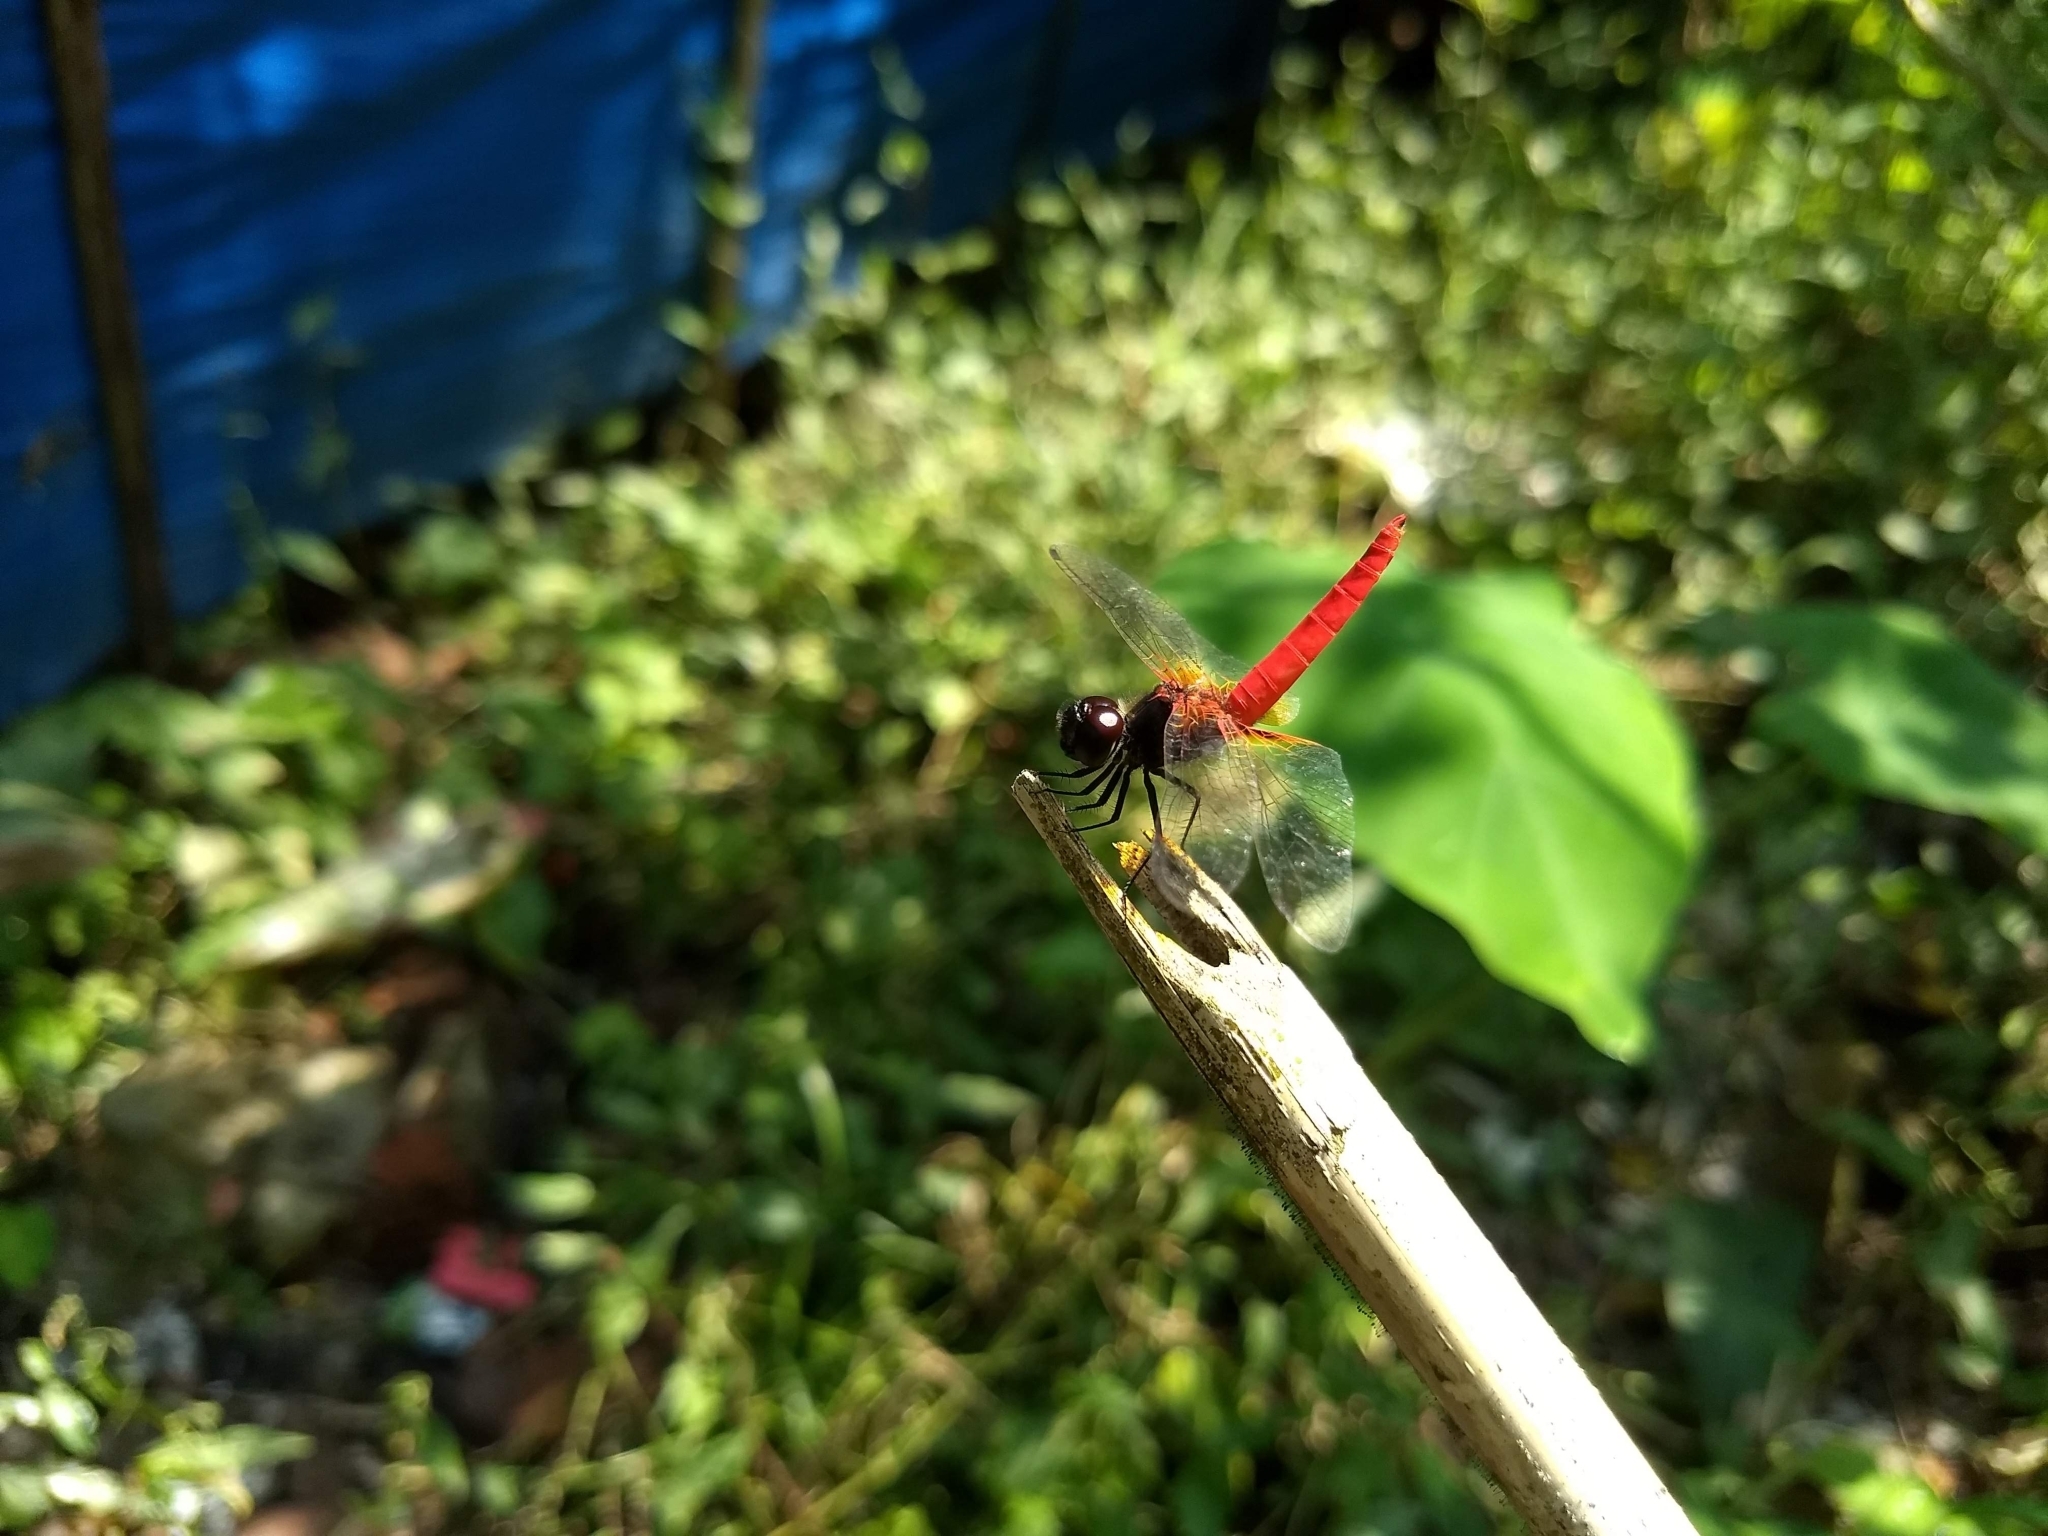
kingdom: Animalia
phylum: Arthropoda
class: Insecta
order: Odonata
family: Libellulidae
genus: Aethriamanta
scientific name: Aethriamanta brevipennis
